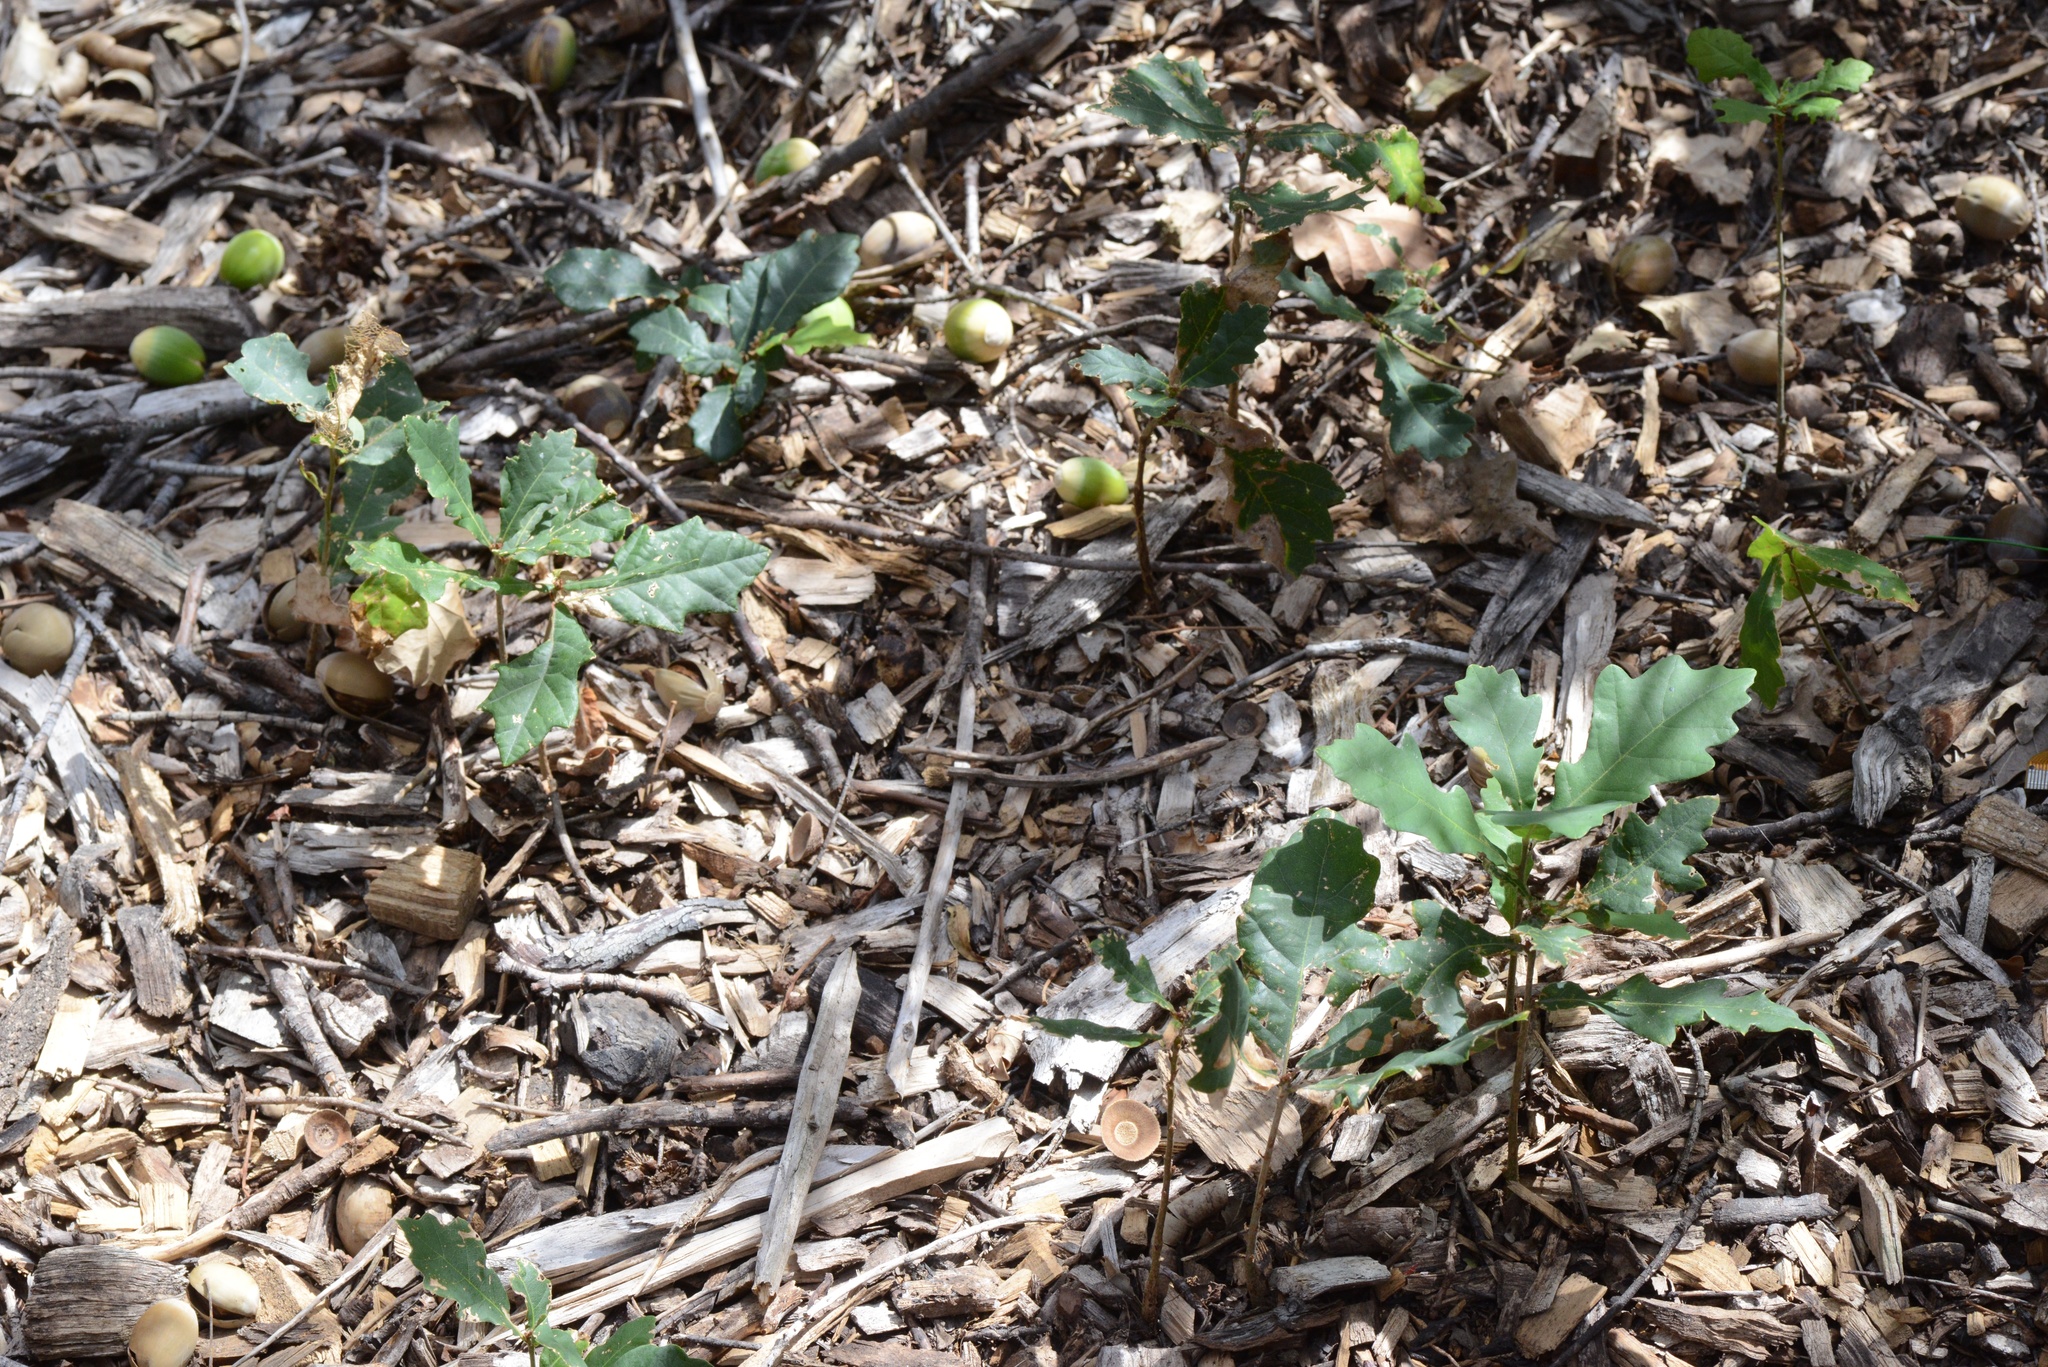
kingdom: Plantae
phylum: Tracheophyta
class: Magnoliopsida
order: Fagales
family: Fagaceae
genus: Quercus
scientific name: Quercus robur
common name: Pedunculate oak
